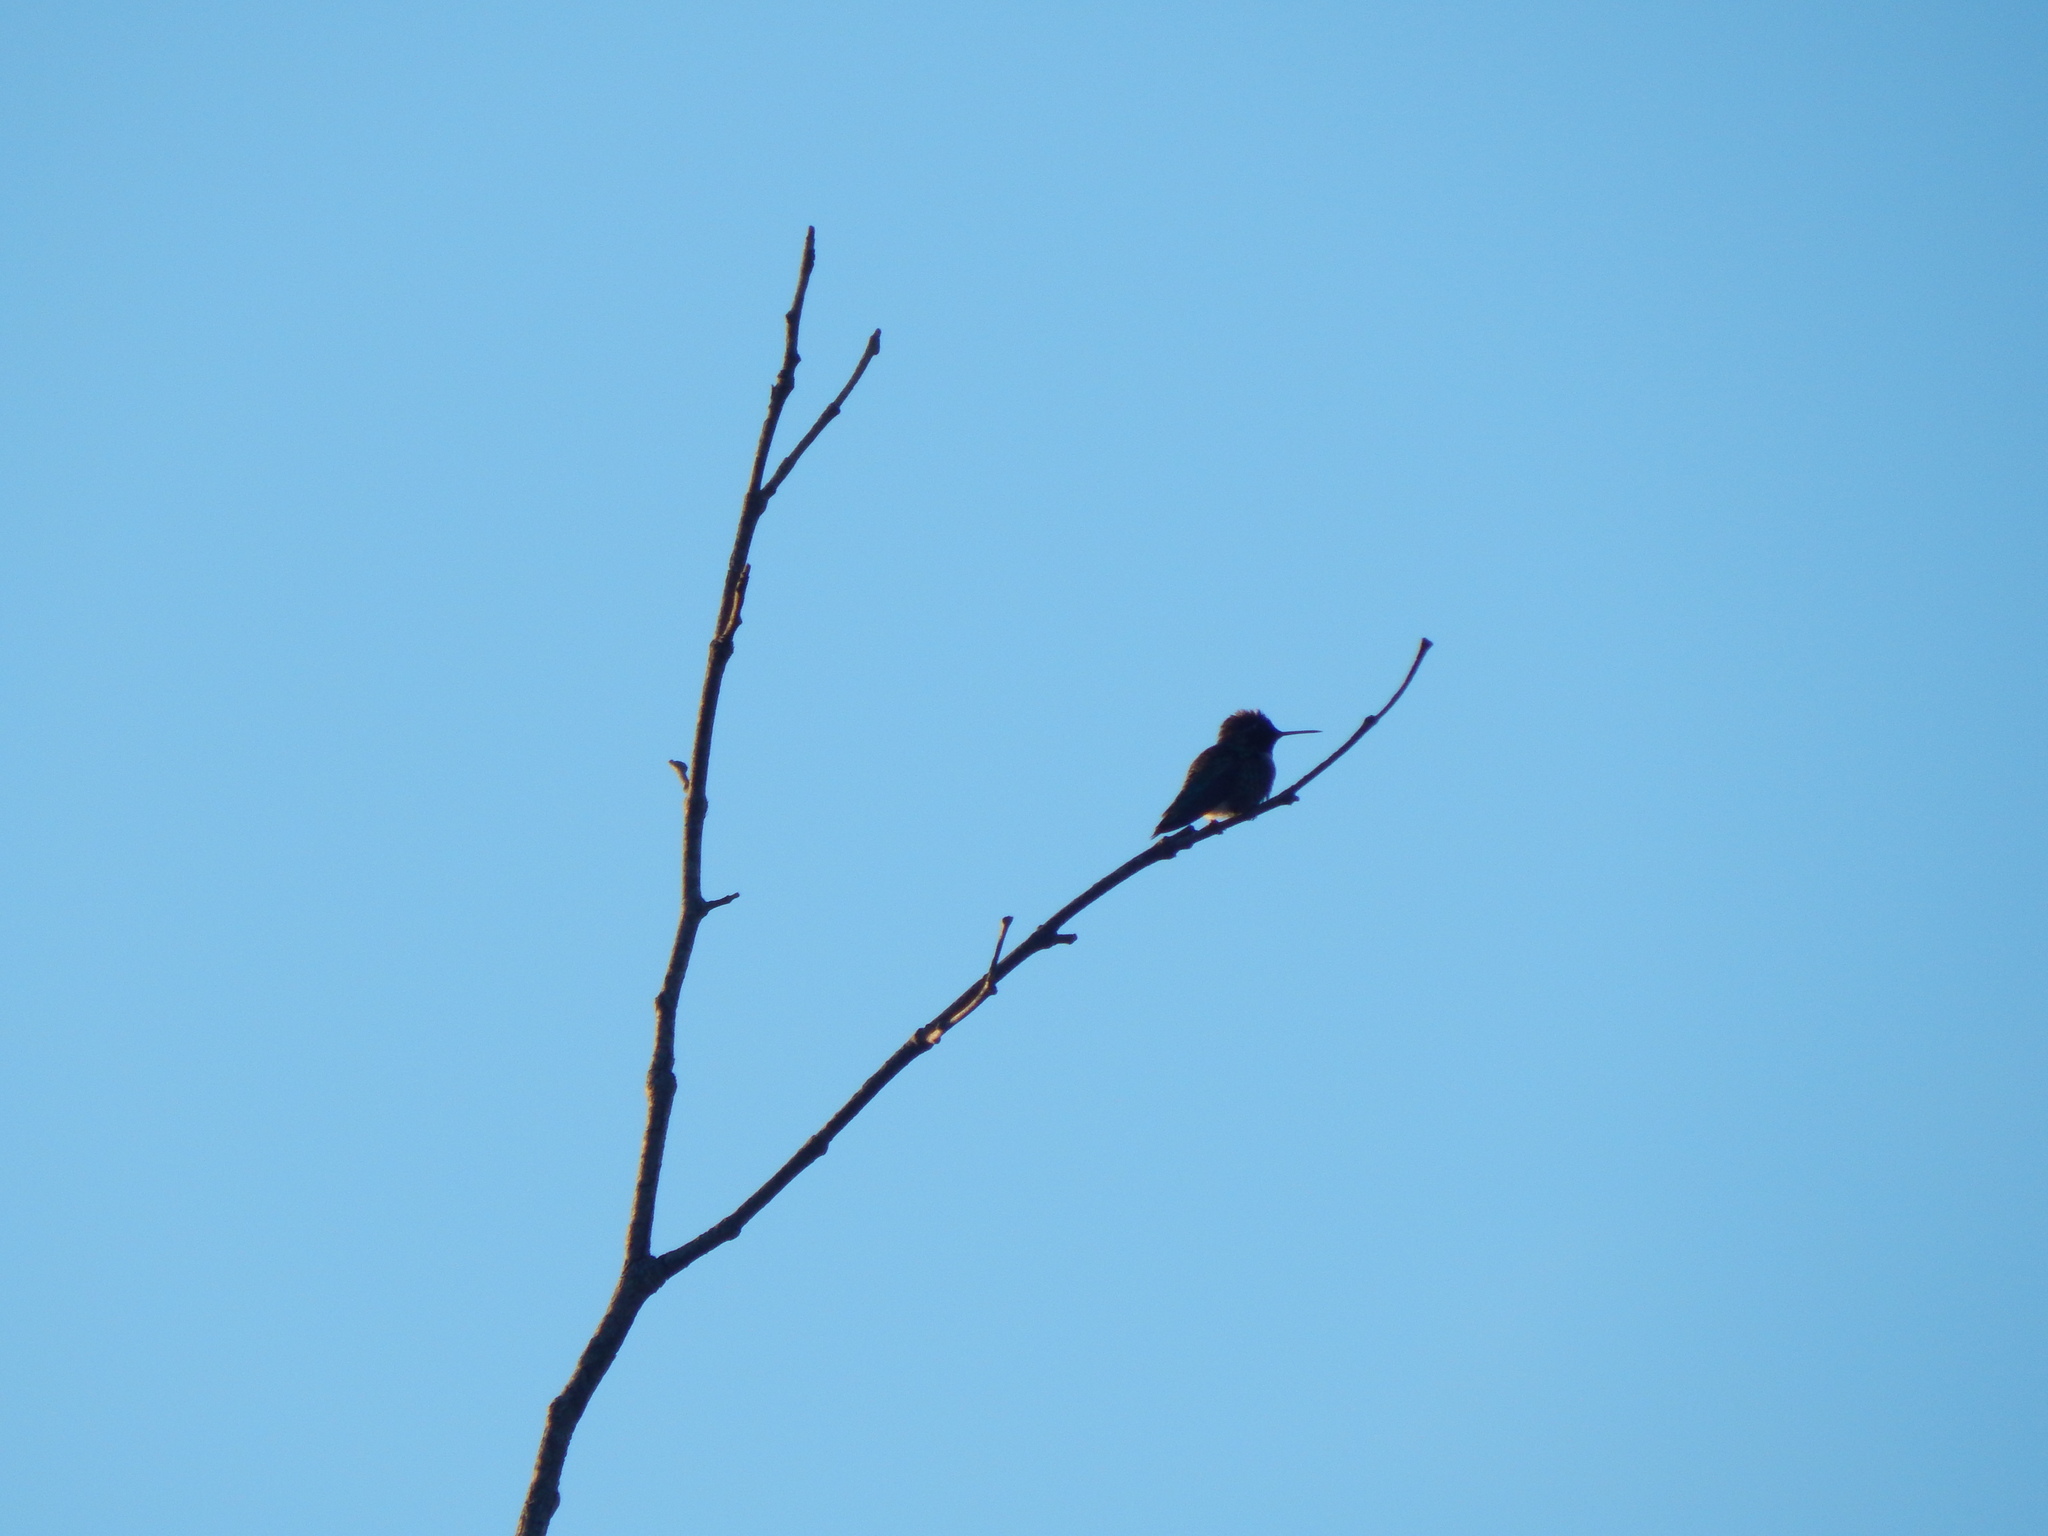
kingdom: Animalia
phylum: Chordata
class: Aves
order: Apodiformes
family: Trochilidae
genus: Calypte
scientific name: Calypte anna
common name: Anna's hummingbird
